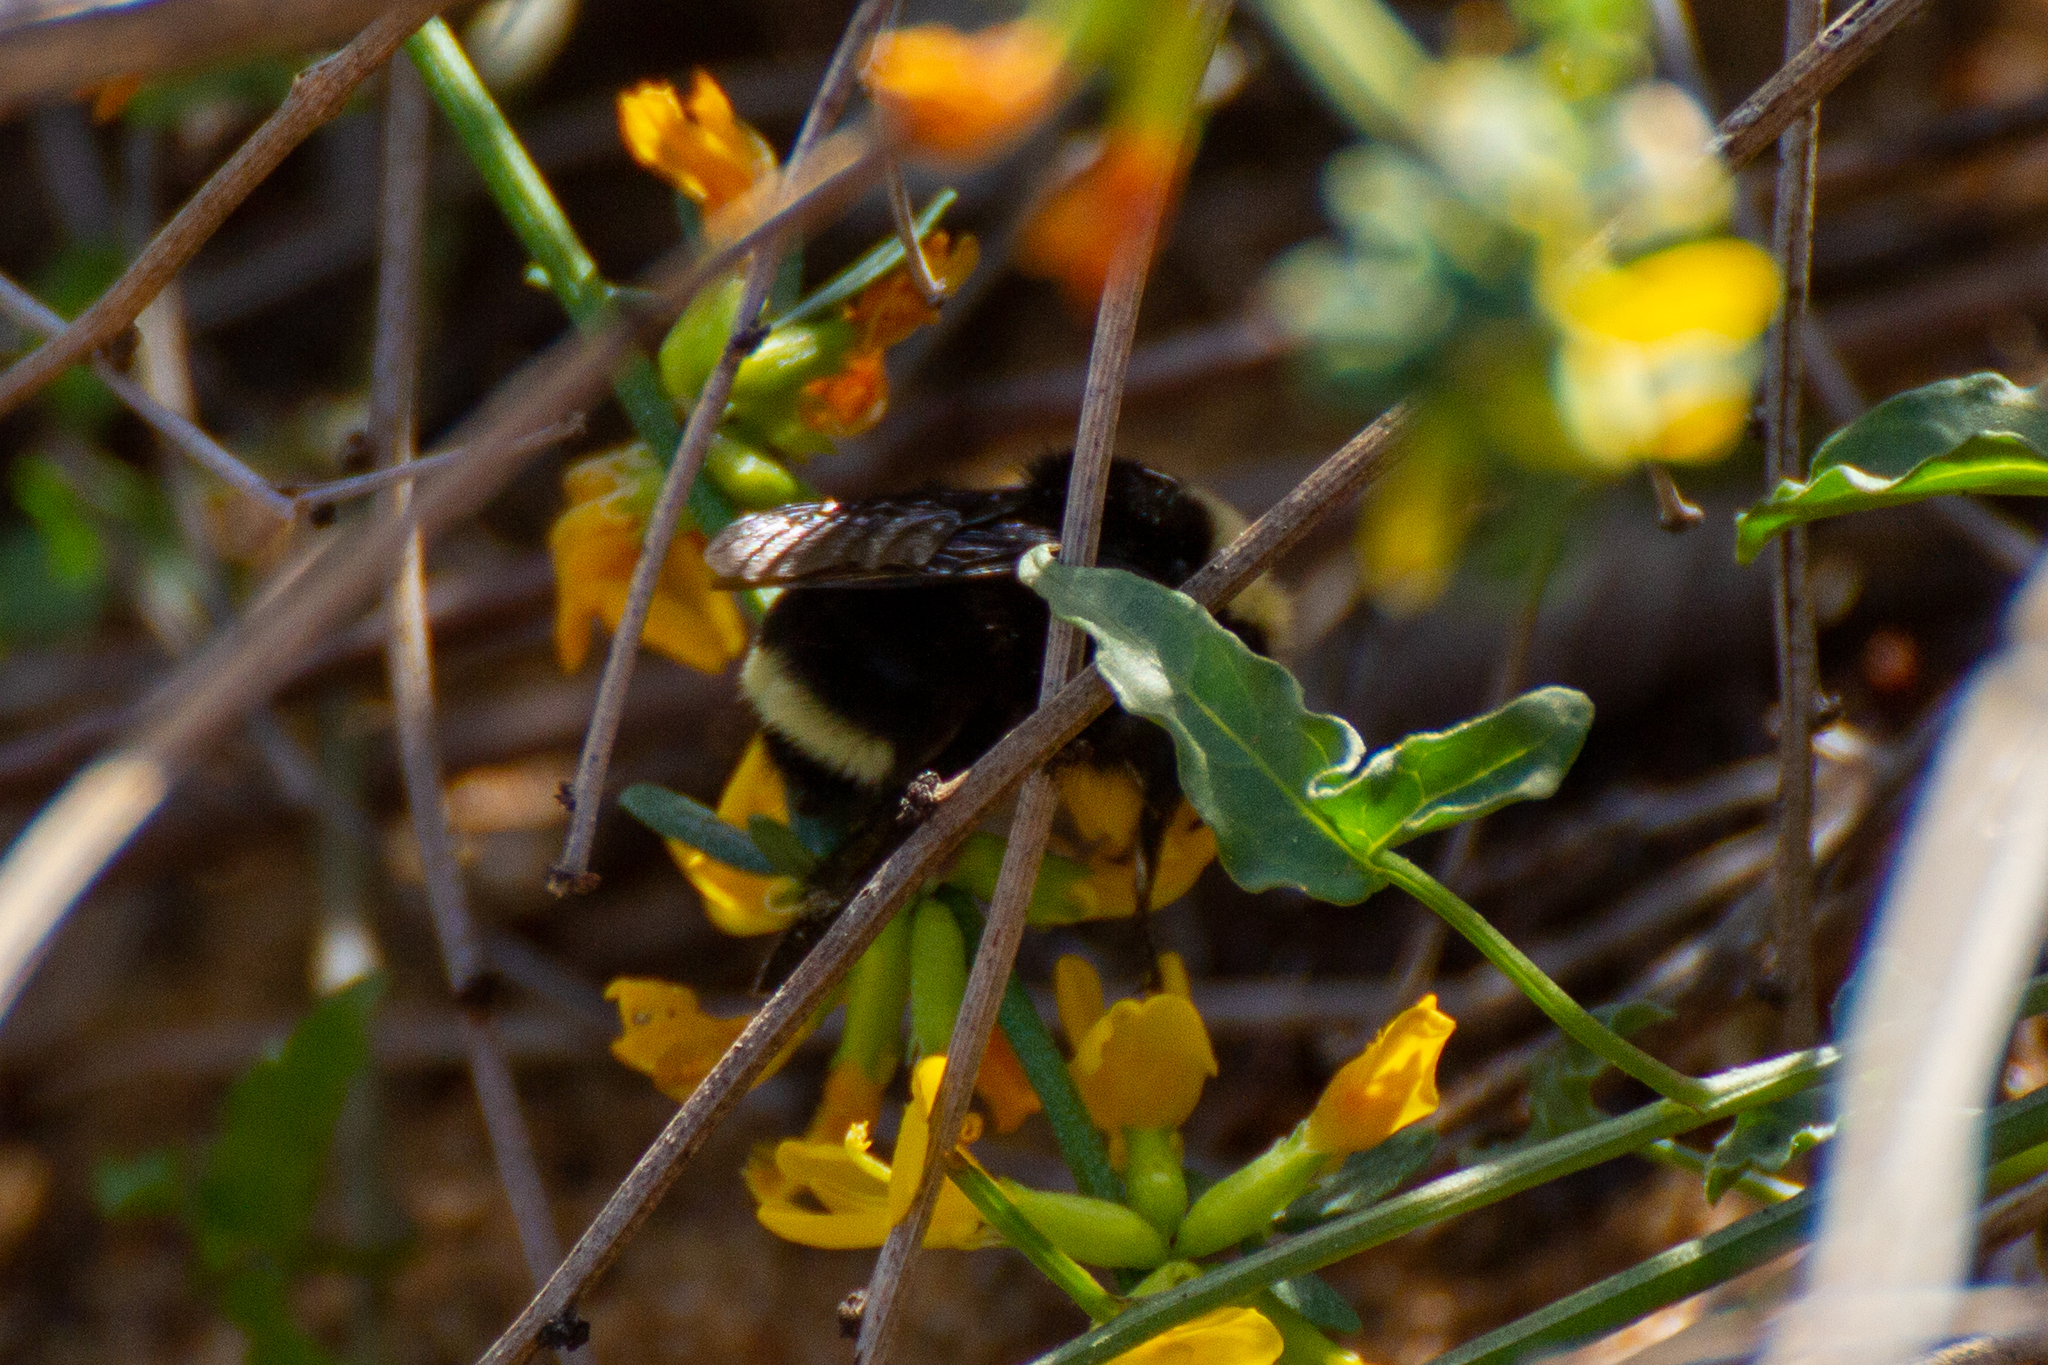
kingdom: Animalia
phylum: Arthropoda
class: Insecta
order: Hymenoptera
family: Apidae
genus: Bombus
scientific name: Bombus vosnesenskii
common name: Vosnesensky bumble bee
